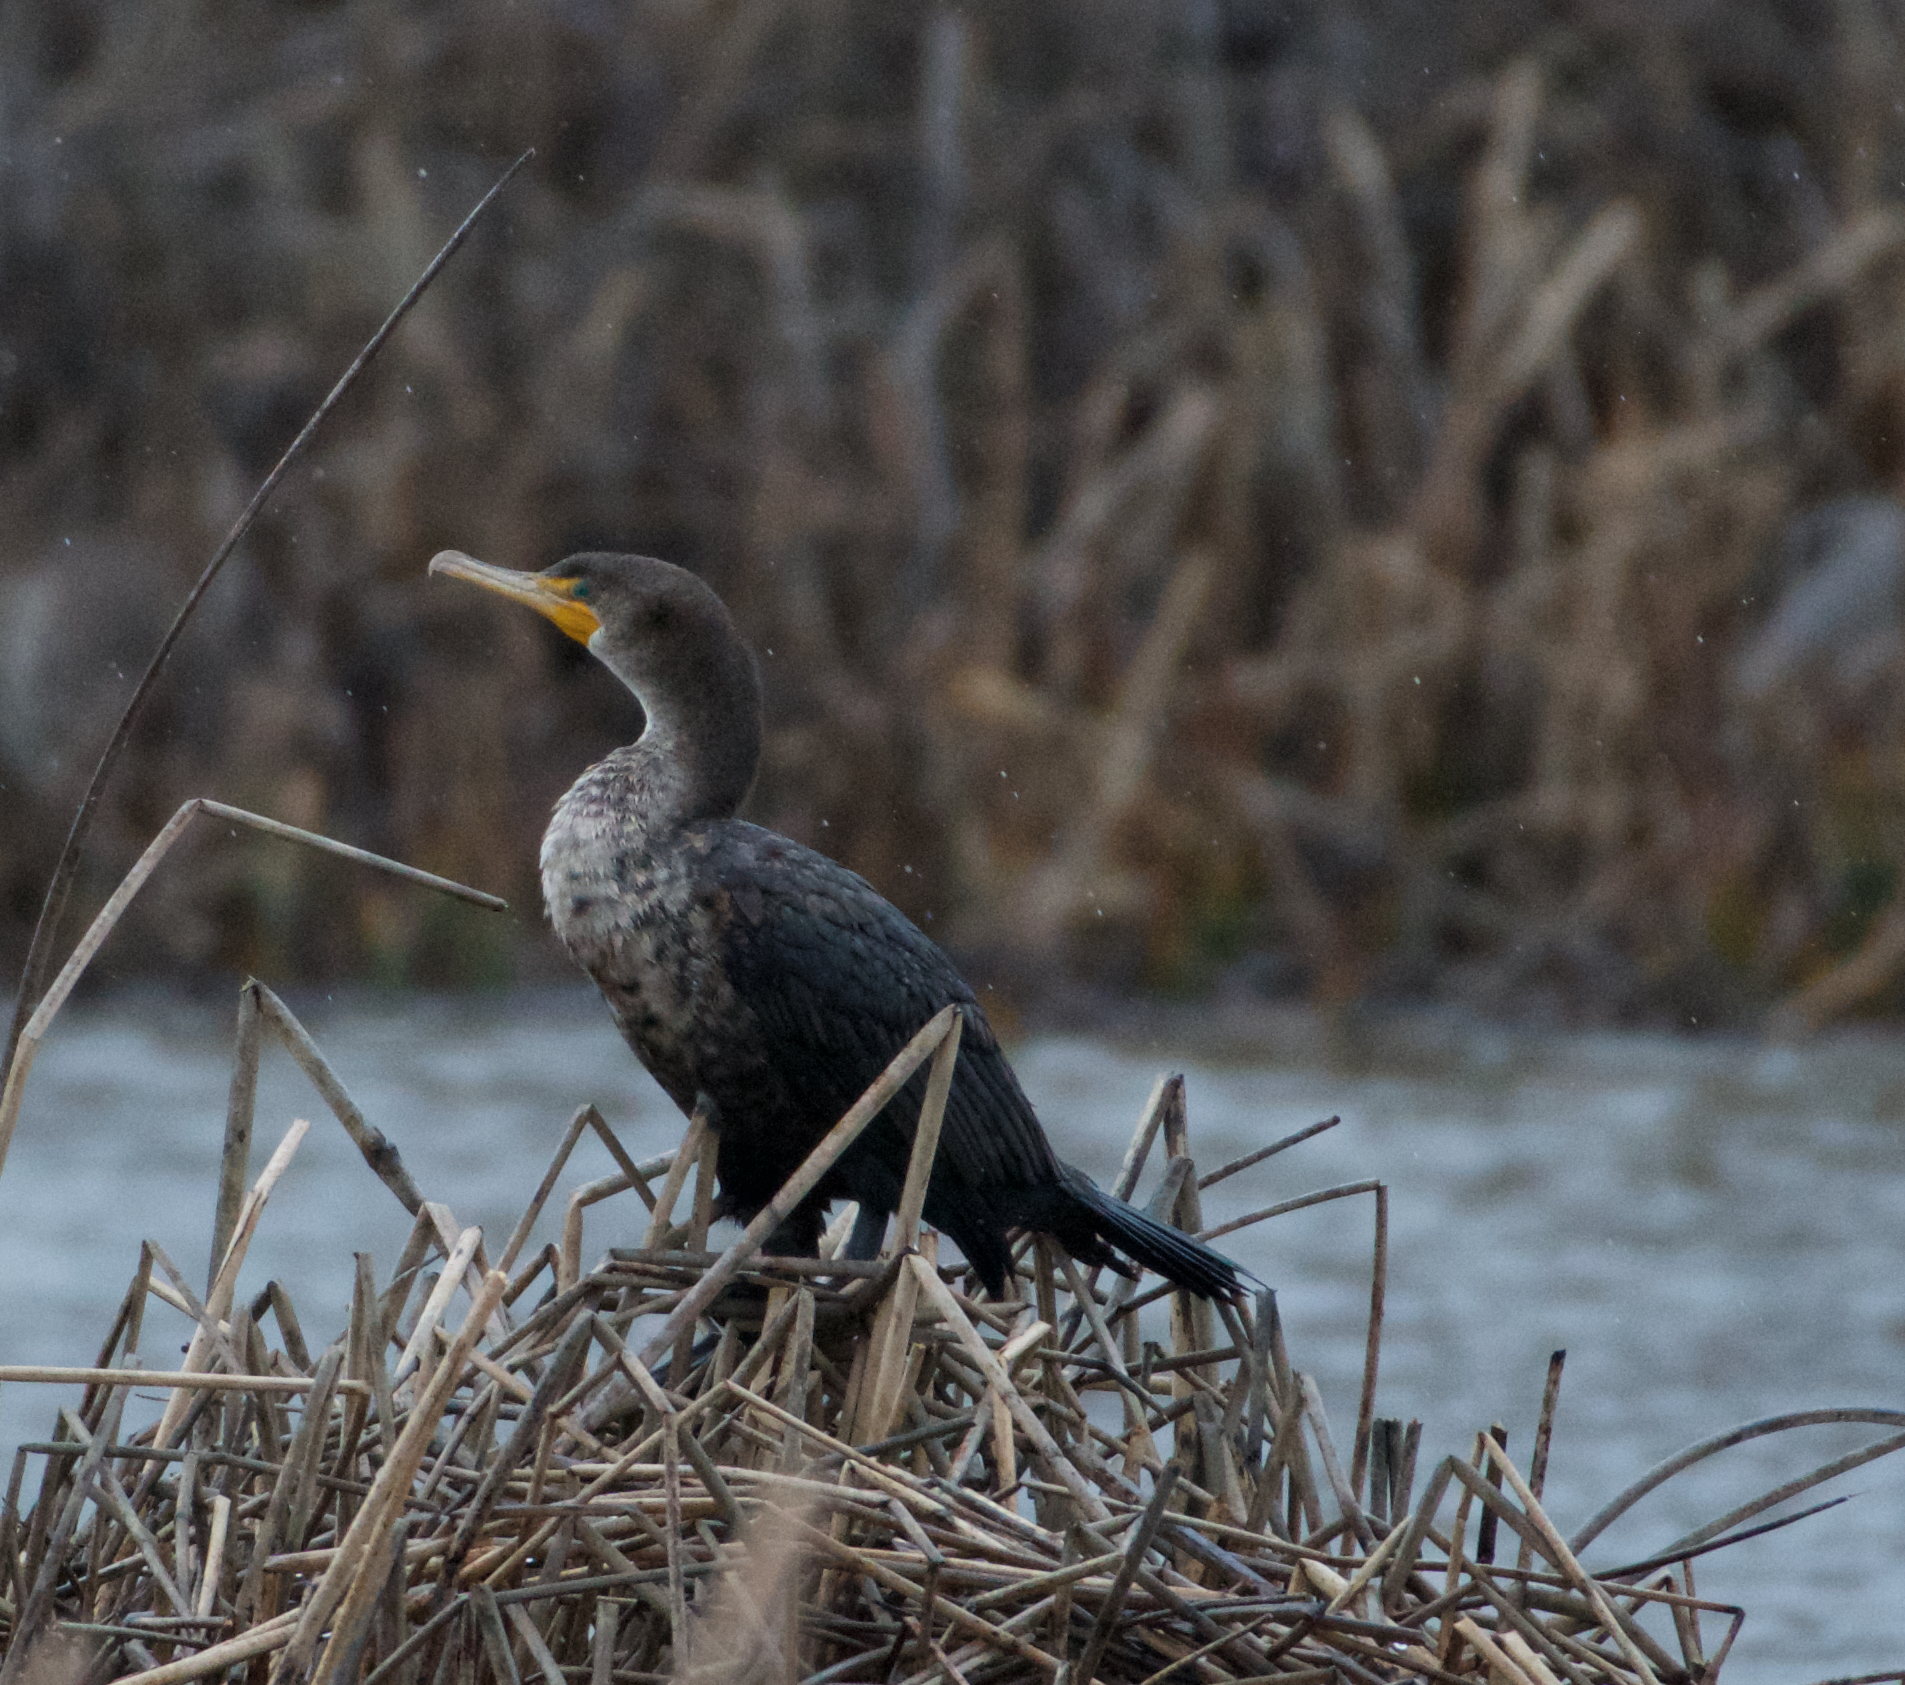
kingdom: Animalia
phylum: Chordata
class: Aves
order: Suliformes
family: Phalacrocoracidae
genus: Phalacrocorax
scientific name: Phalacrocorax auritus
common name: Double-crested cormorant
